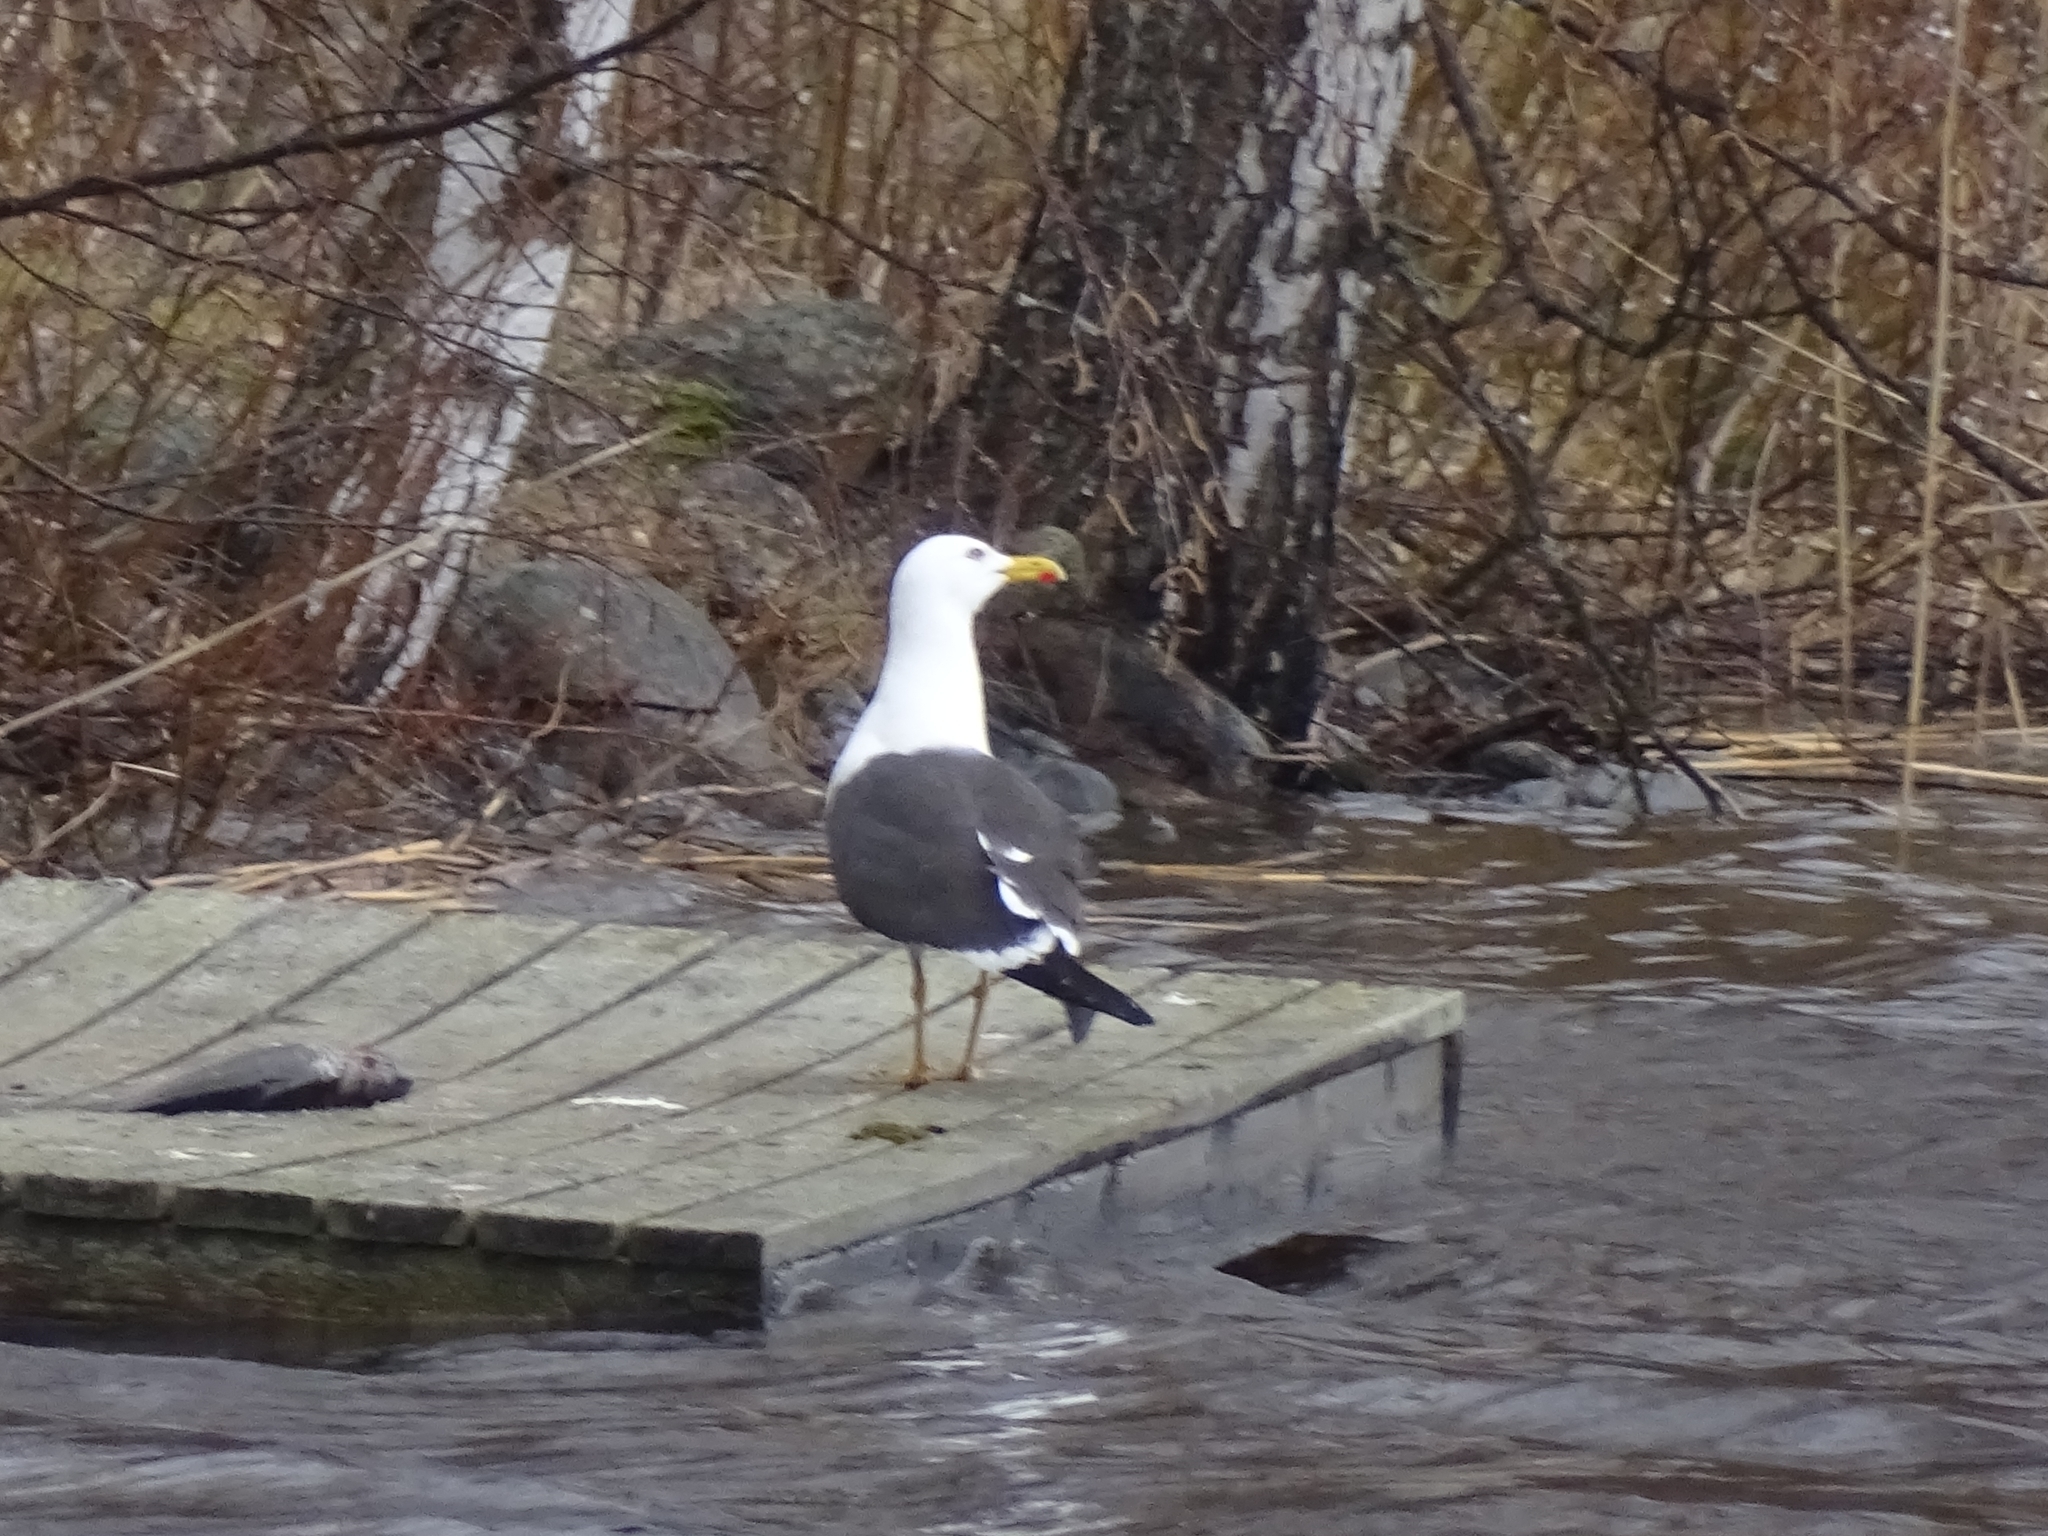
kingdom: Animalia
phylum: Chordata
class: Aves
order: Charadriiformes
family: Laridae
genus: Larus
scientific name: Larus fuscus
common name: Lesser black-backed gull
